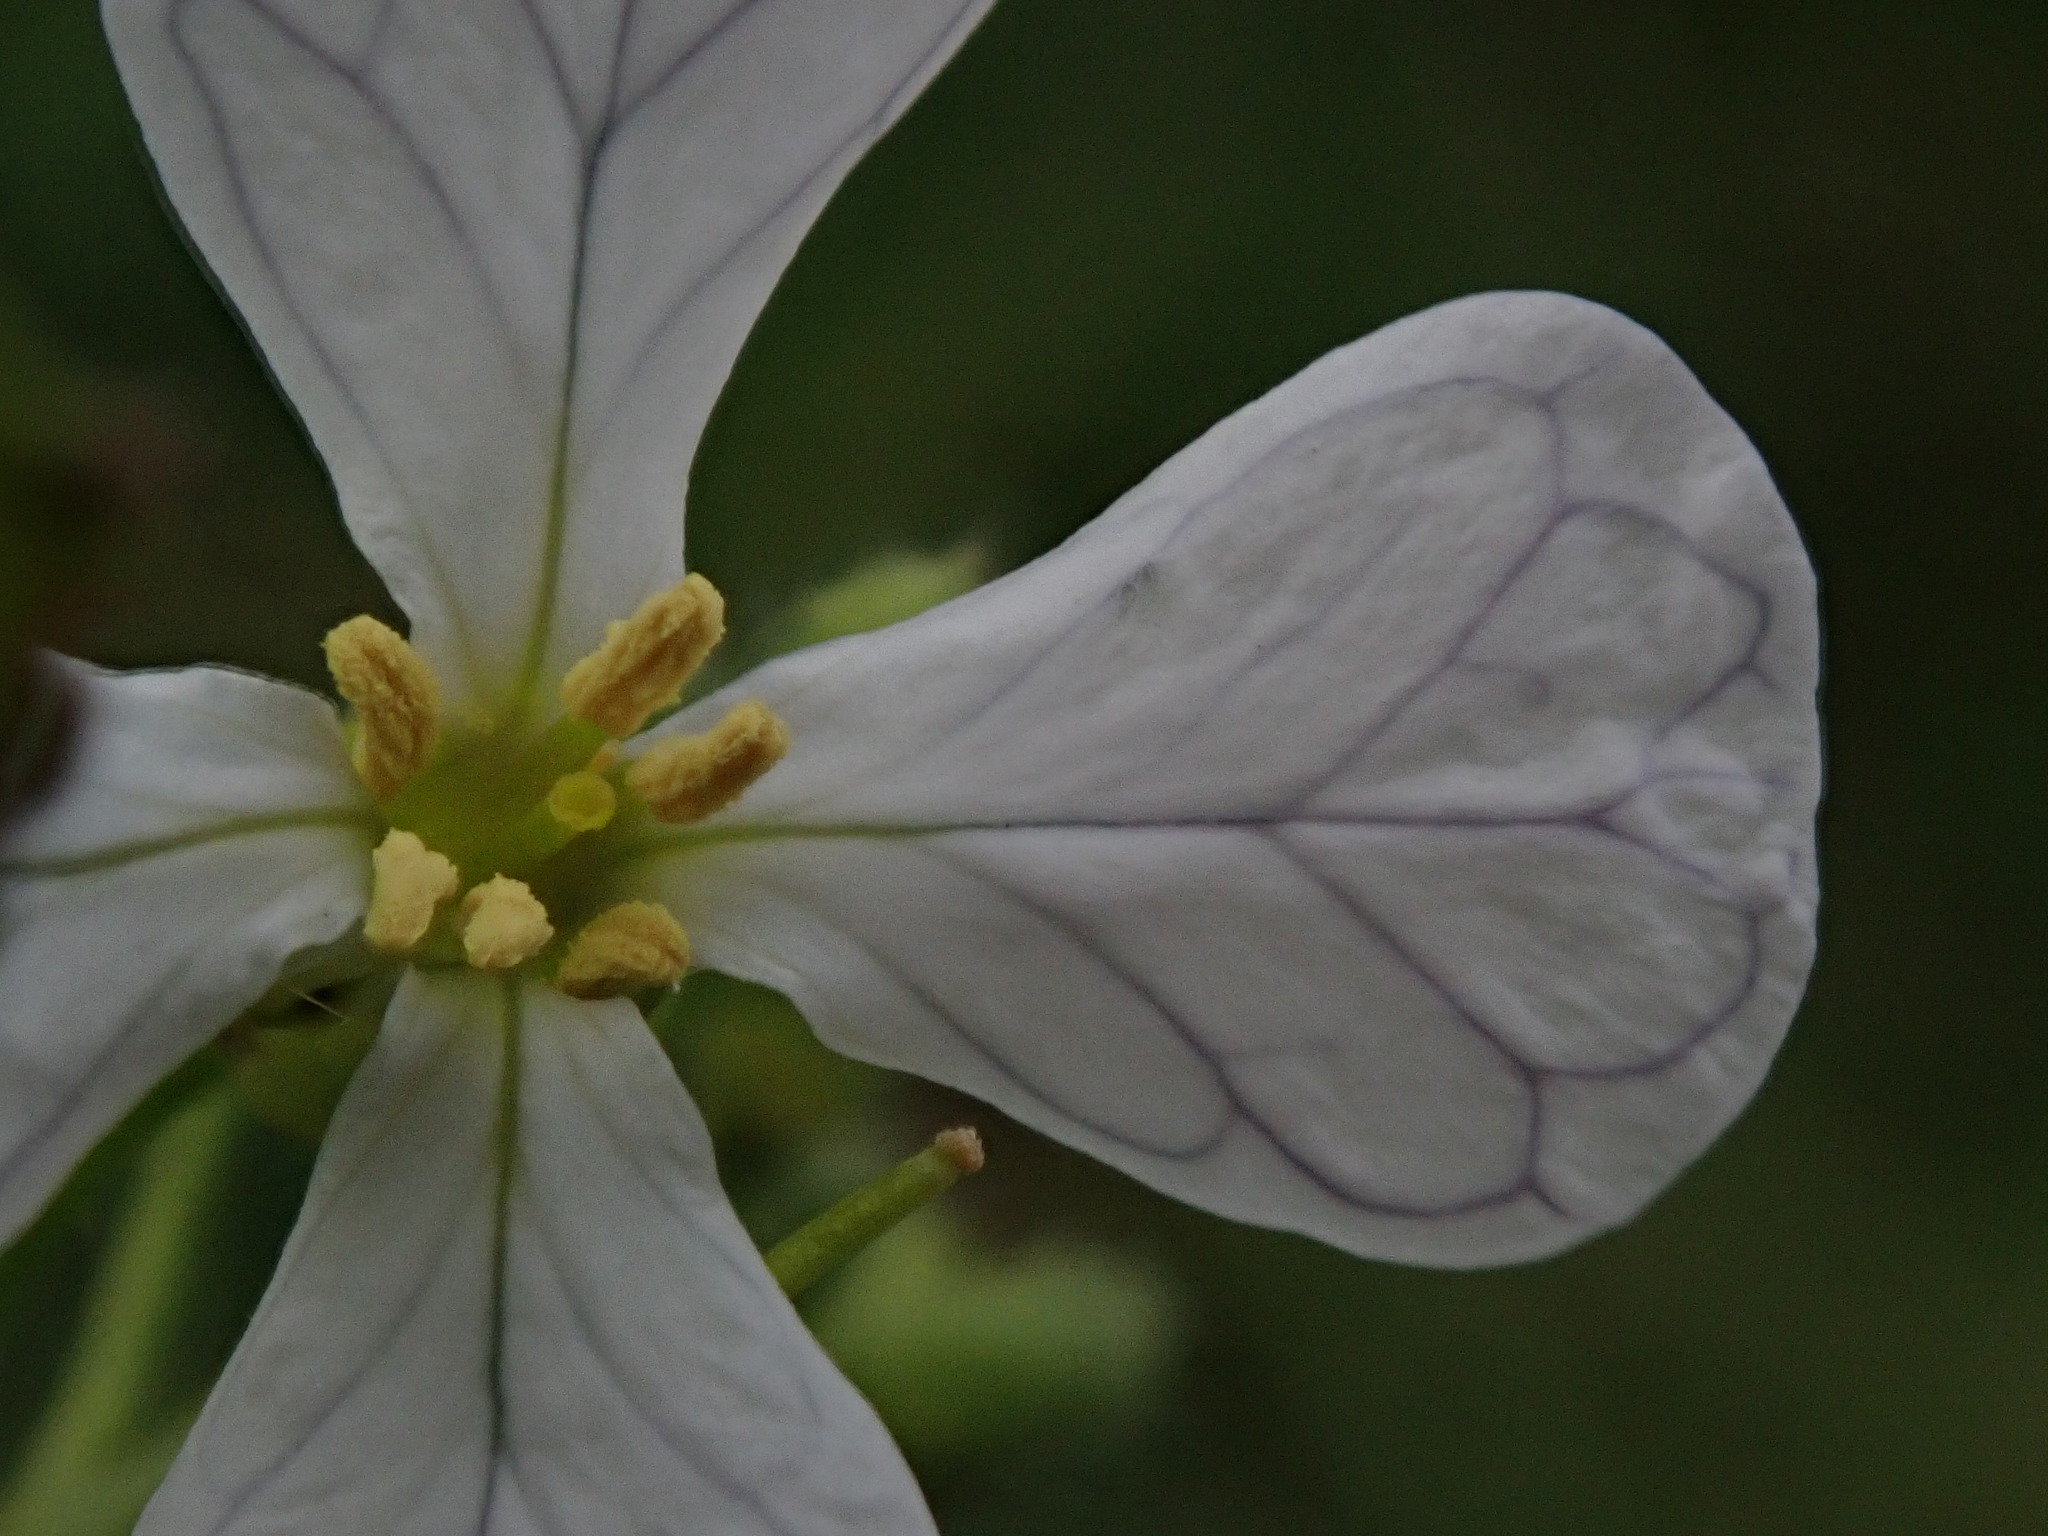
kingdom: Plantae
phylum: Tracheophyta
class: Magnoliopsida
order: Brassicales
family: Brassicaceae
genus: Raphanus
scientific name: Raphanus raphanistrum
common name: Wild radish
